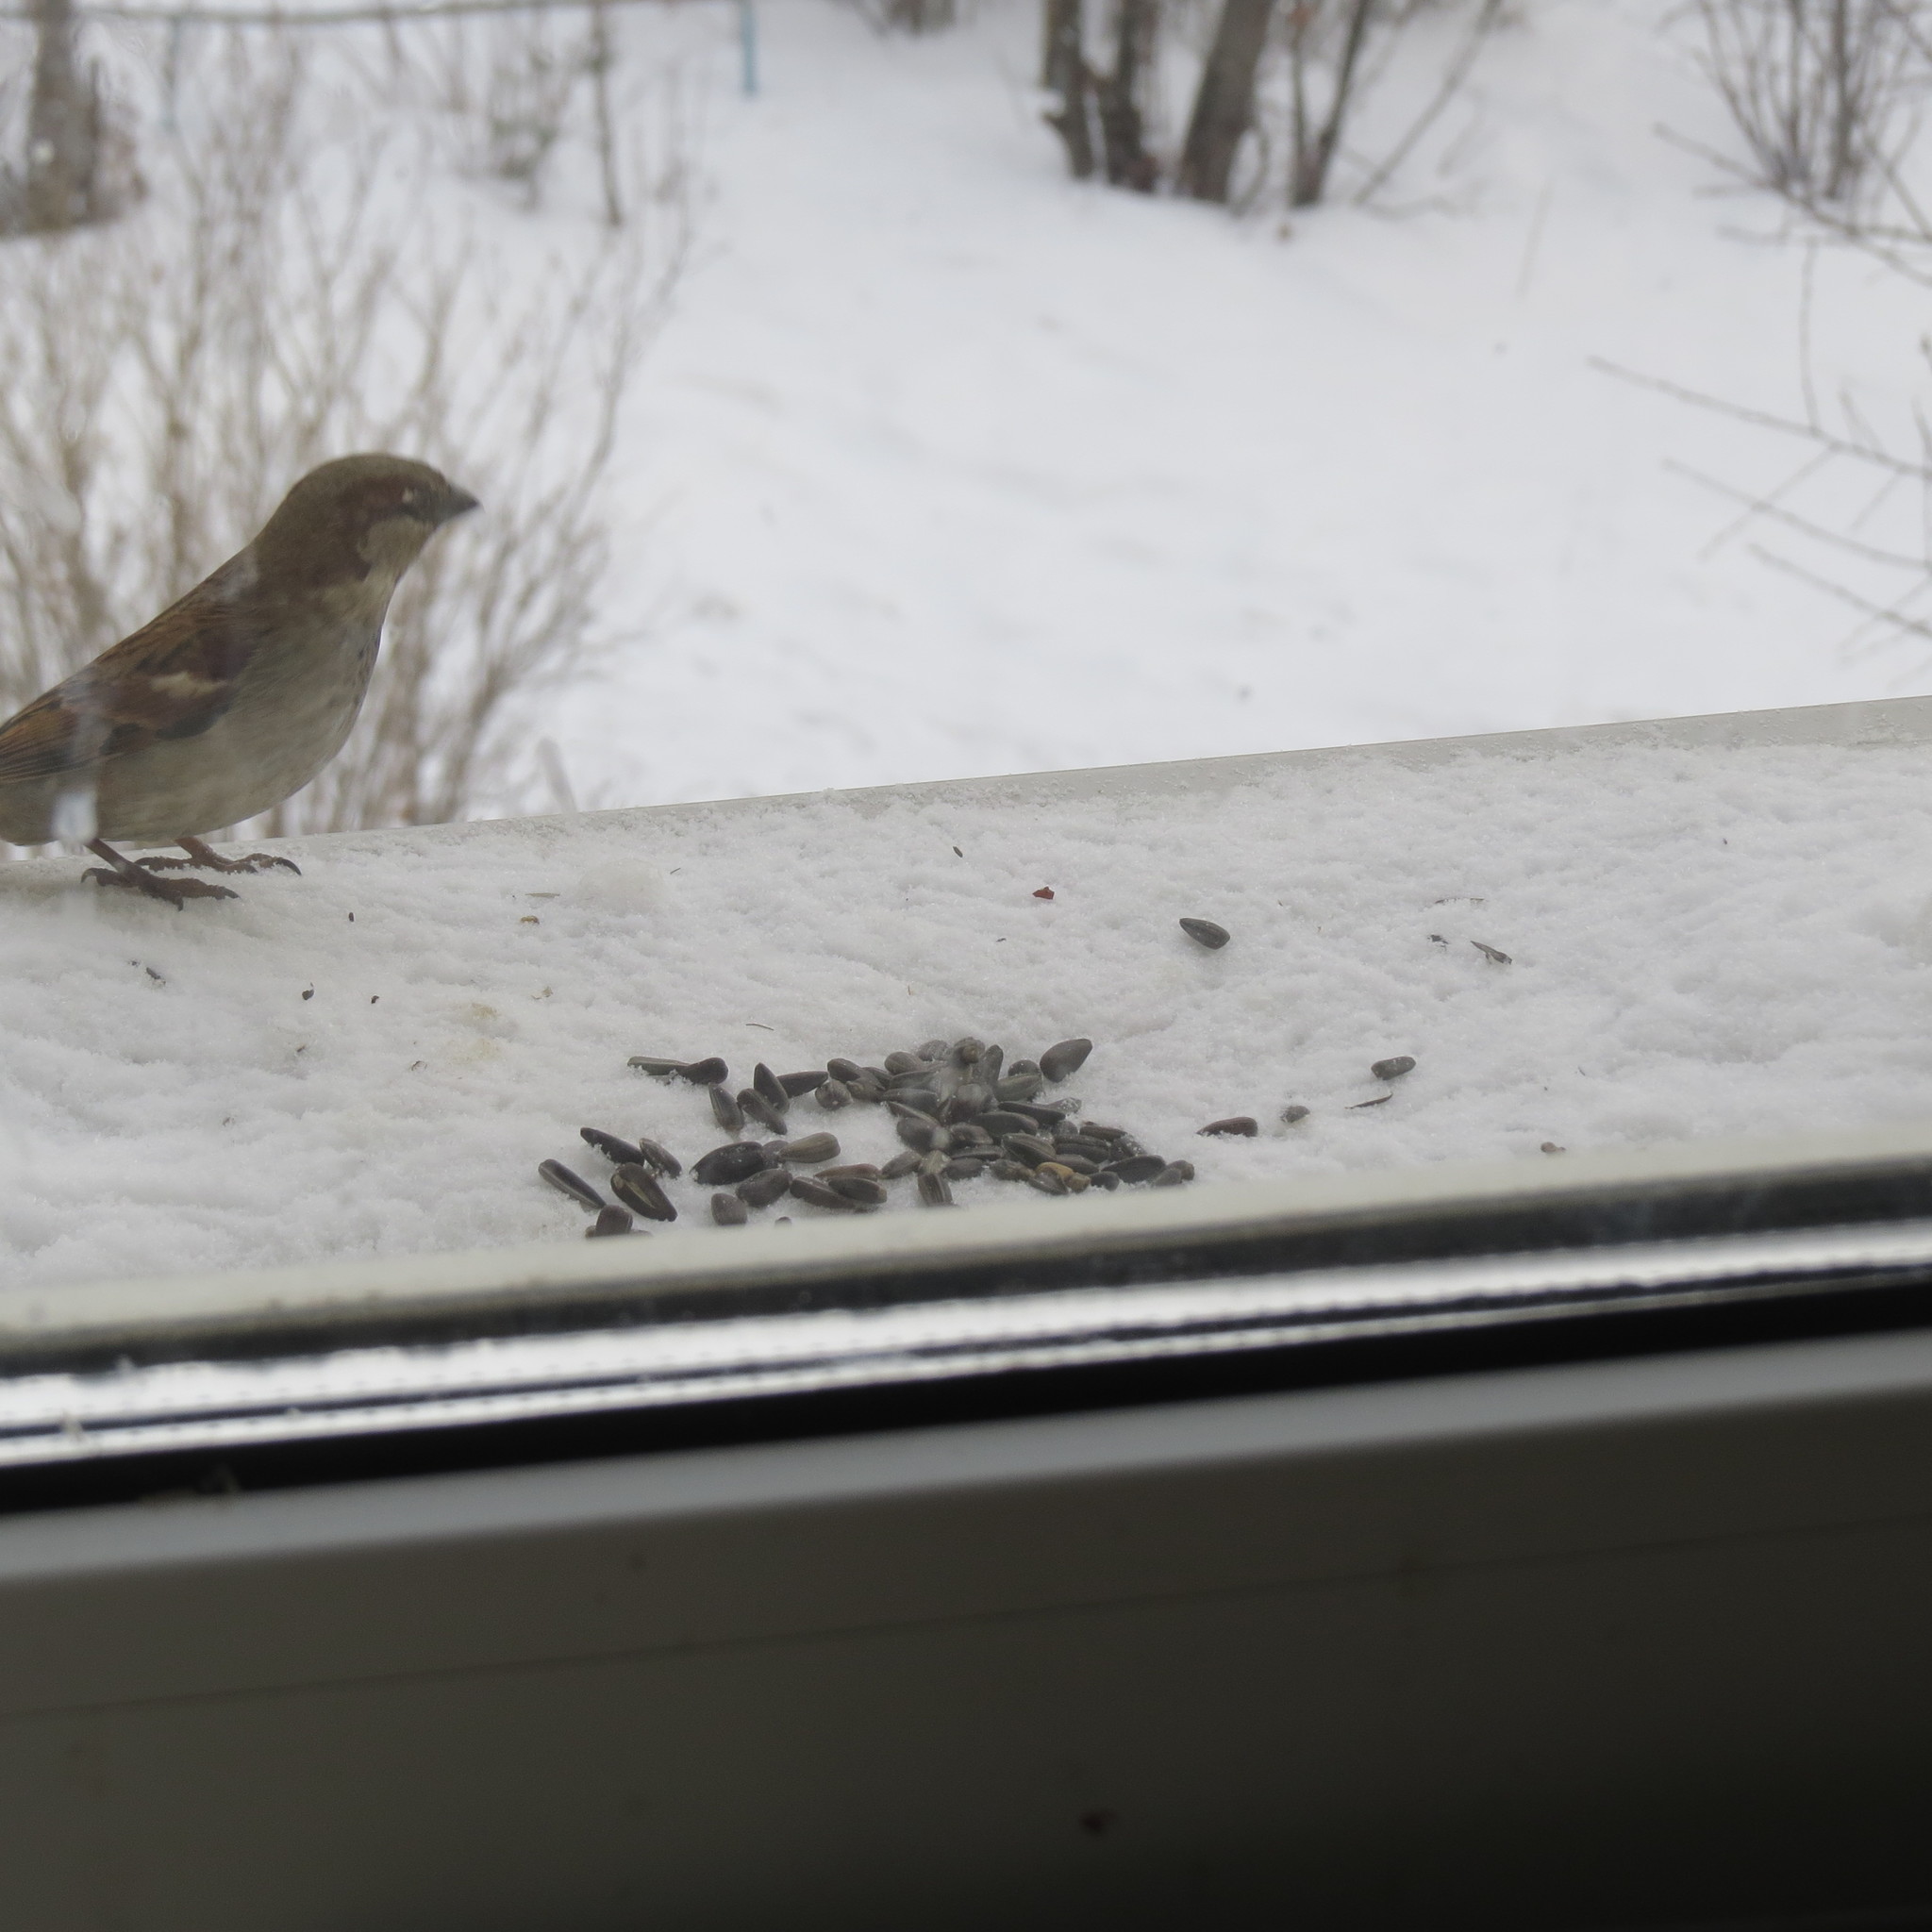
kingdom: Animalia
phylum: Chordata
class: Aves
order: Passeriformes
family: Passeridae
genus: Passer
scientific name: Passer domesticus
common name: House sparrow
